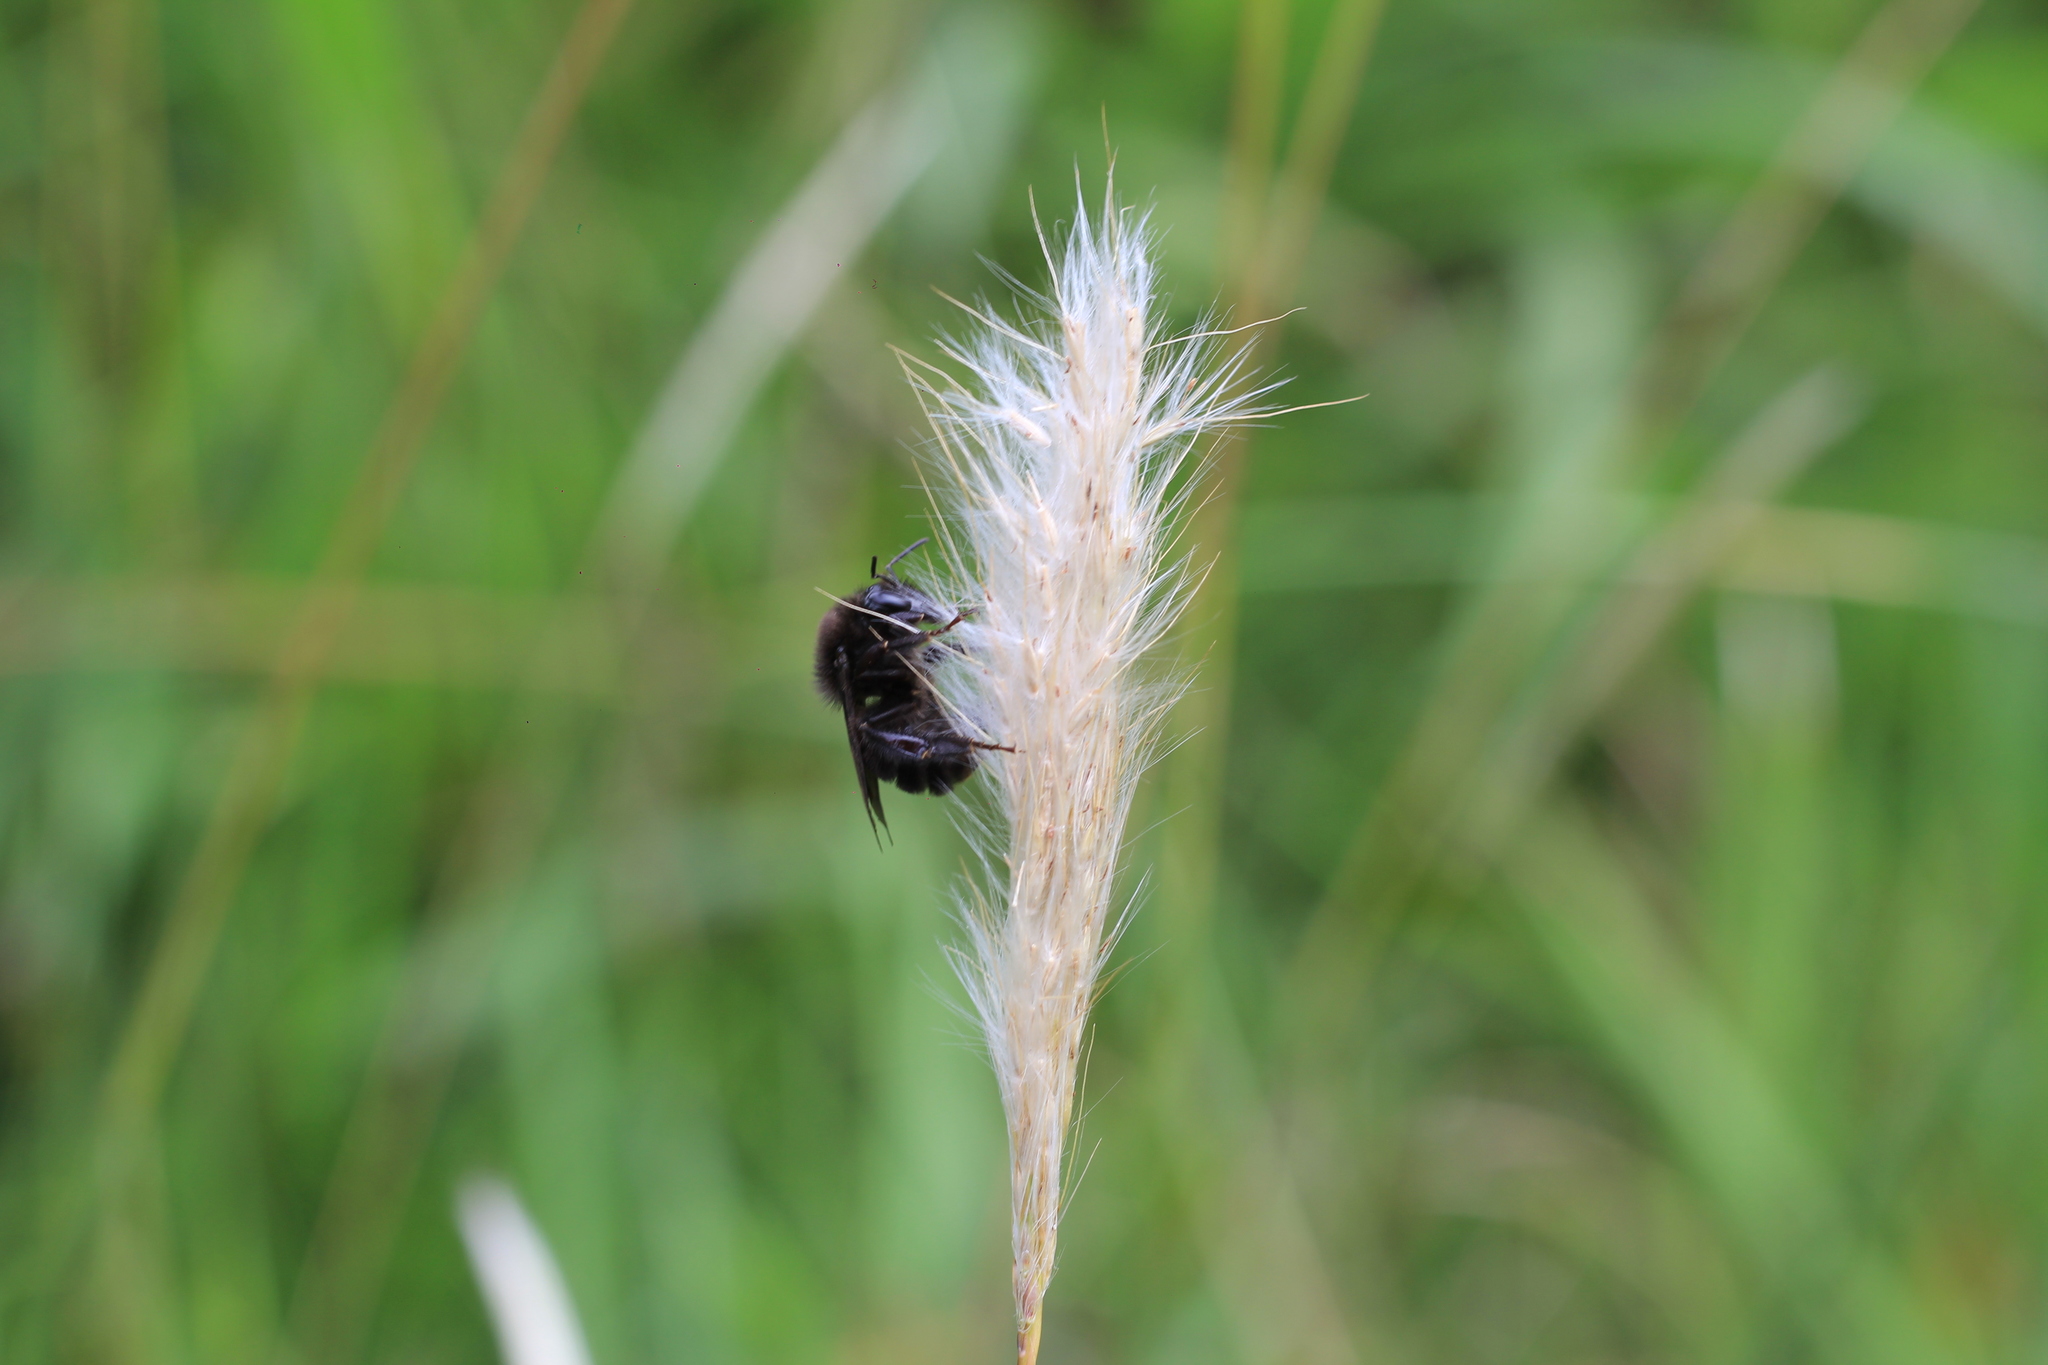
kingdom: Animalia
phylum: Arthropoda
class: Insecta
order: Hymenoptera
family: Apidae
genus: Bombus
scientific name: Bombus pauloensis
